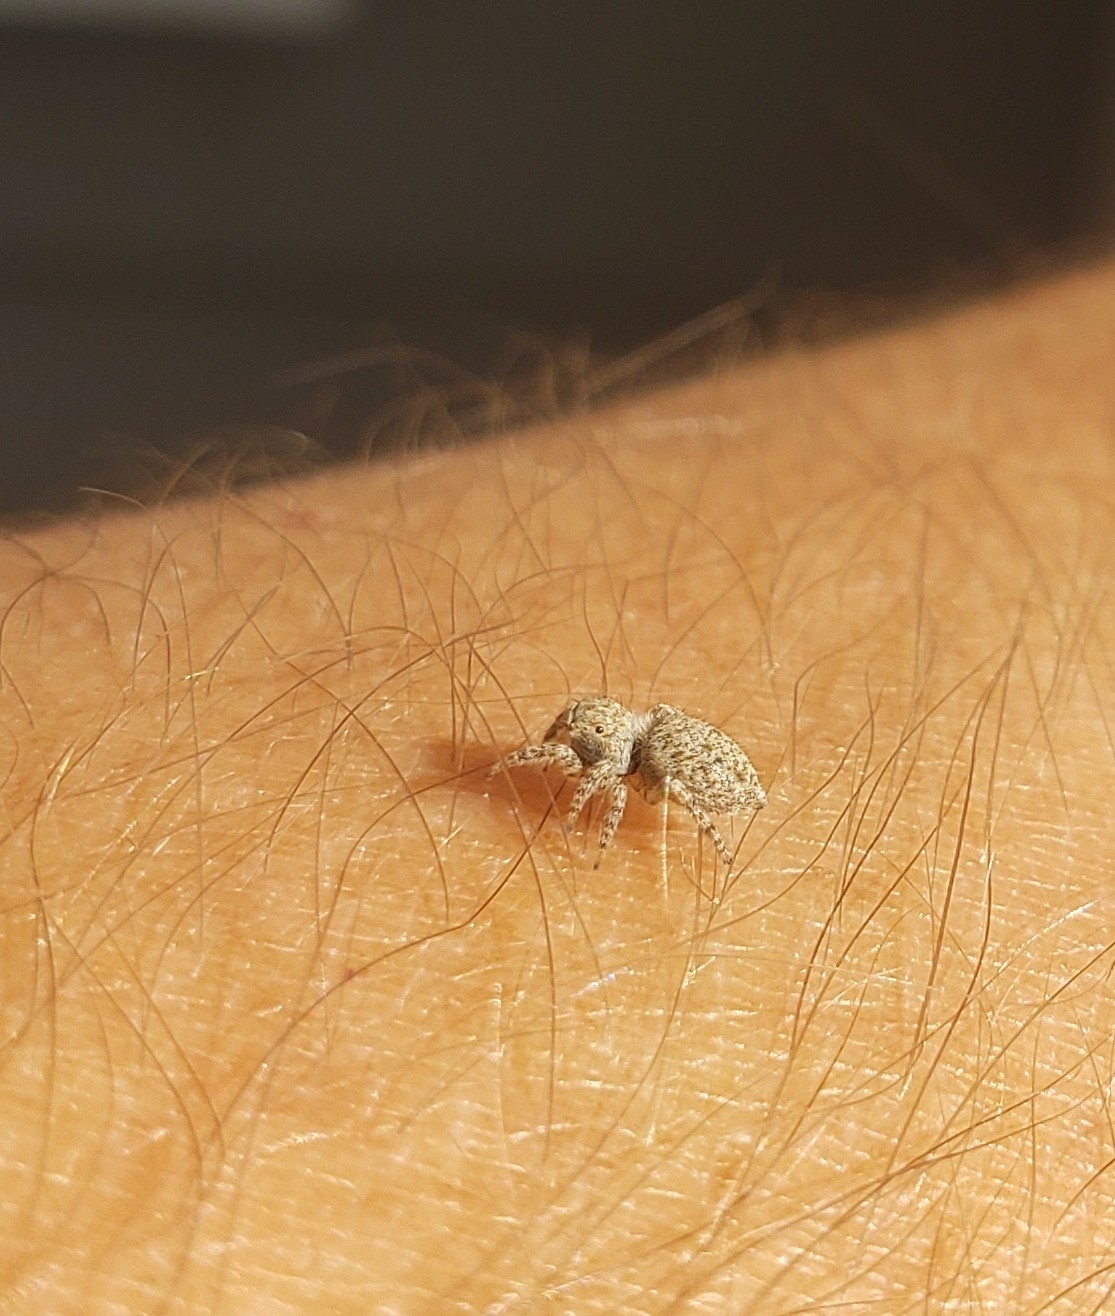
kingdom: Animalia
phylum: Arthropoda
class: Arachnida
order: Araneae
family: Salticidae
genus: Attulus
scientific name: Attulus ammophilus
